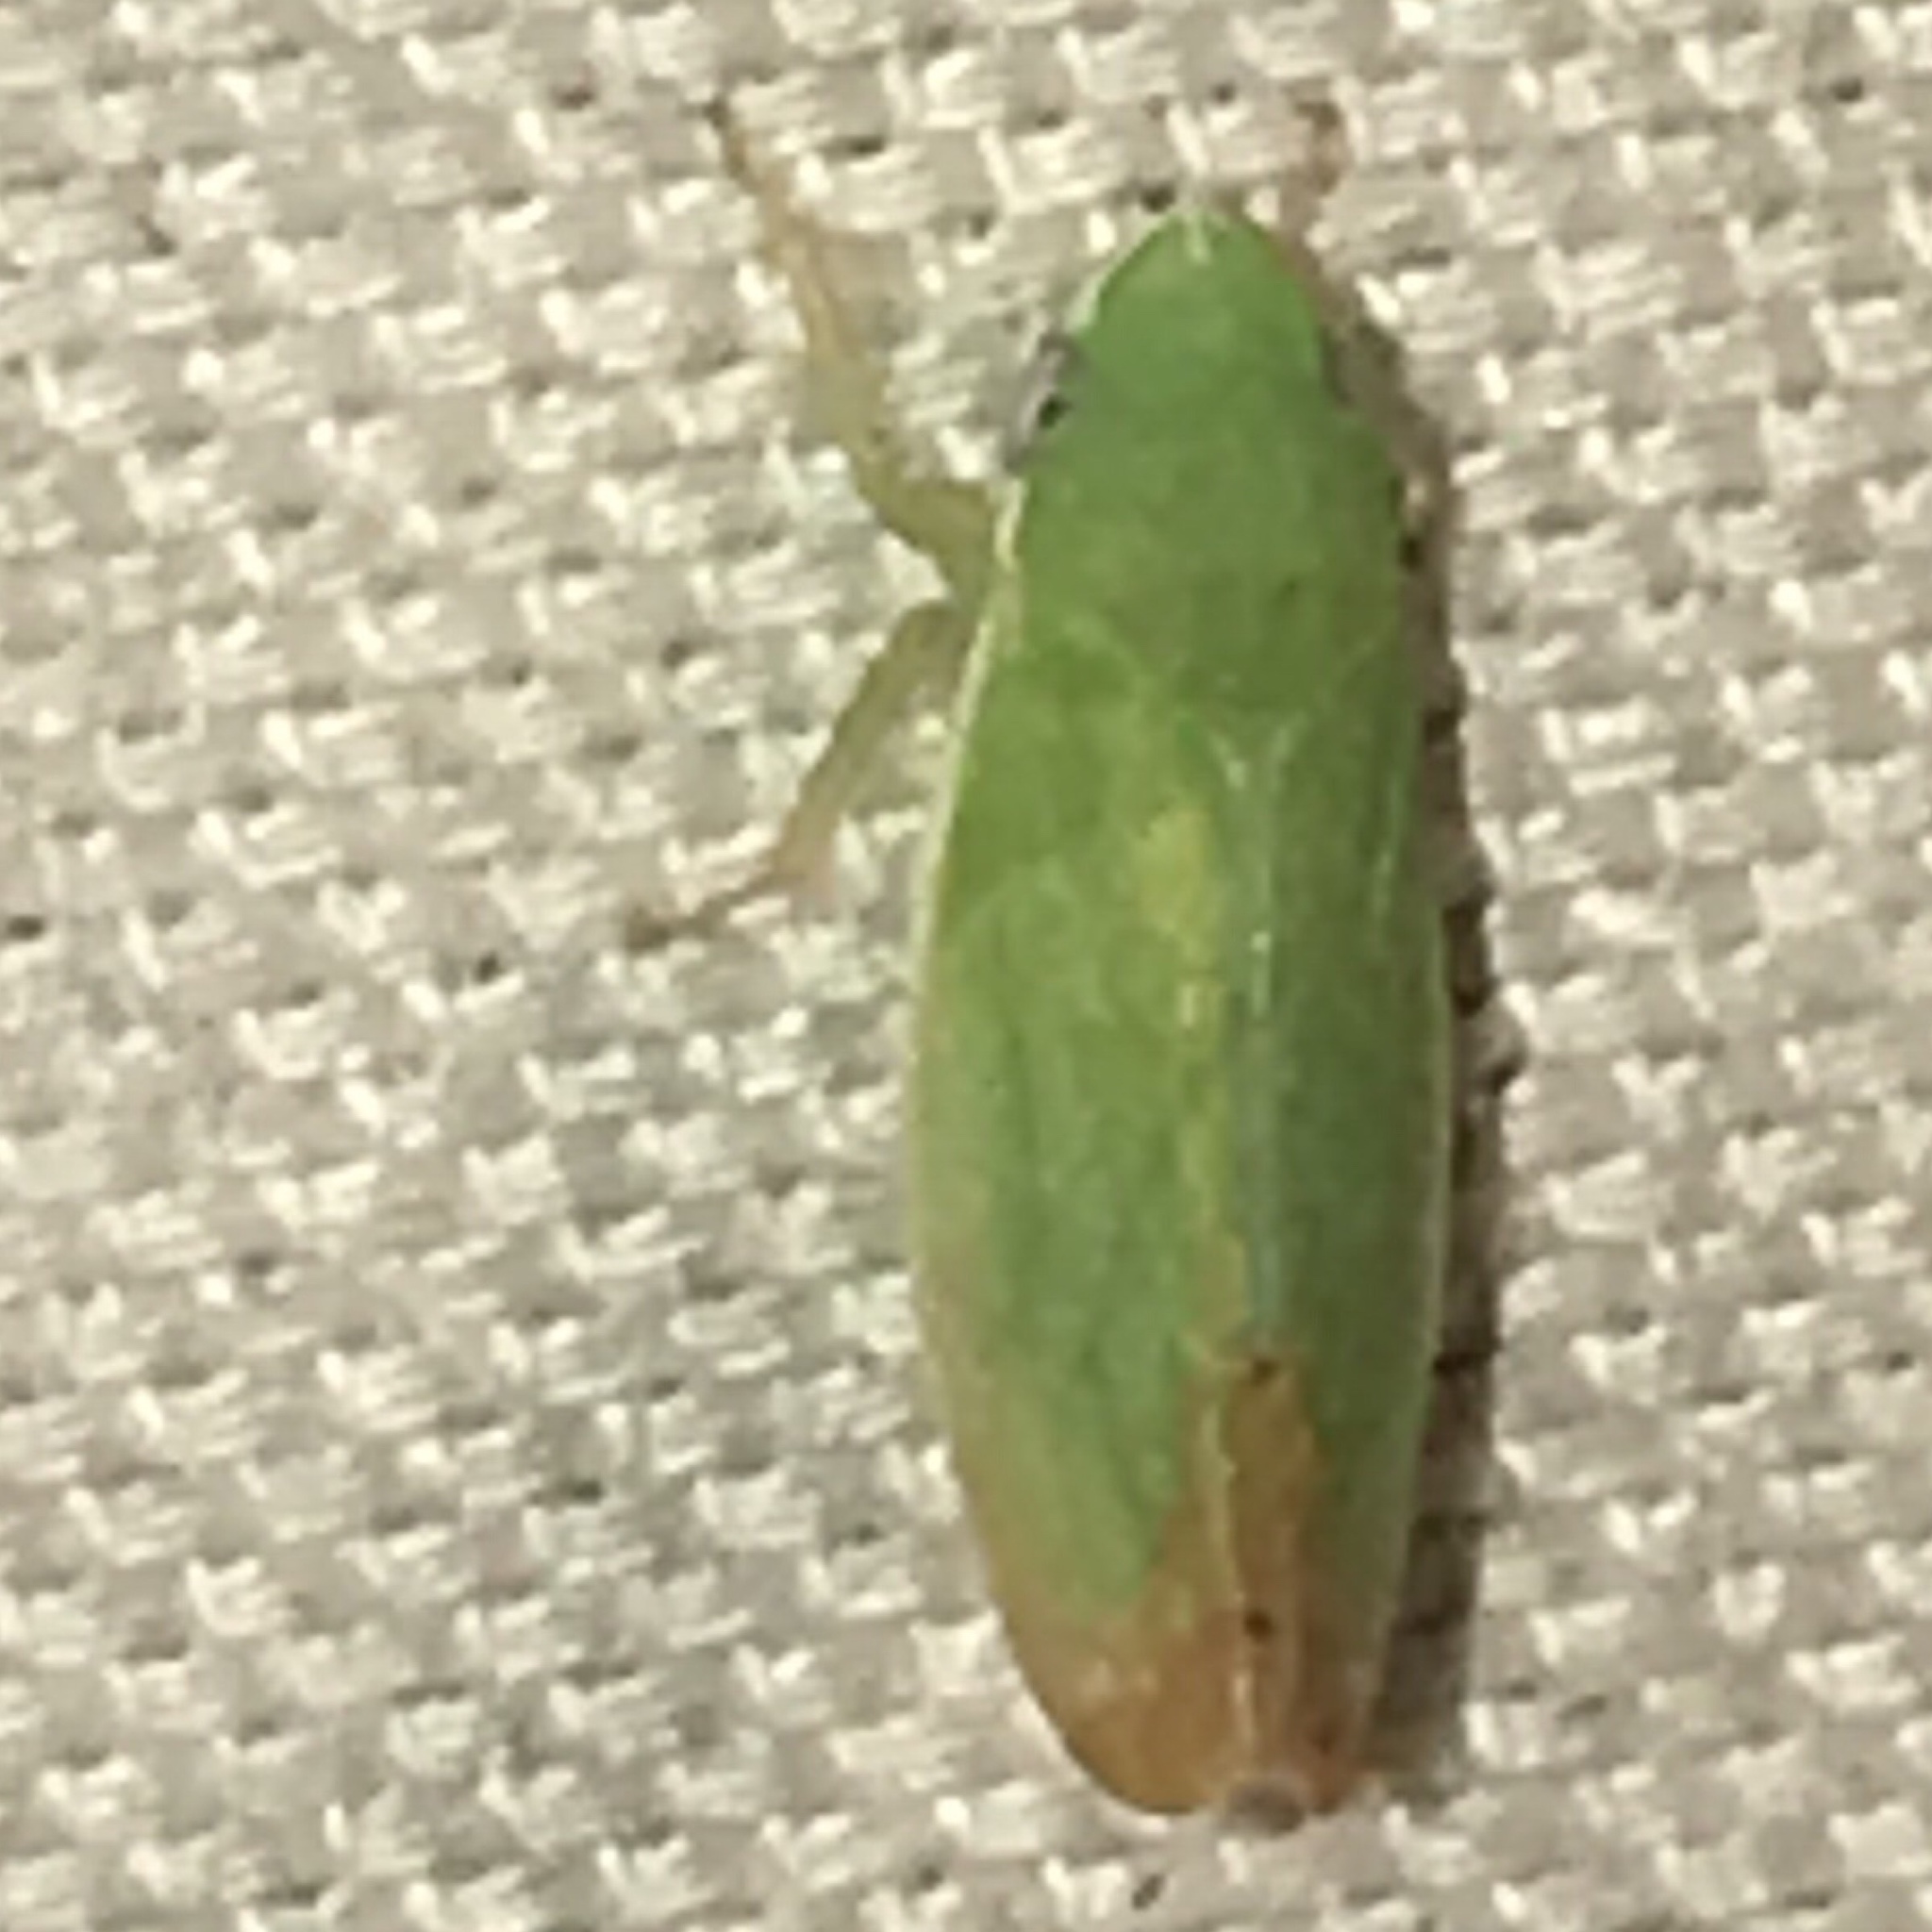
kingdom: Animalia
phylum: Arthropoda
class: Insecta
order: Hemiptera
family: Cicadellidae
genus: Memnonia
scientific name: Memnonia flavida
